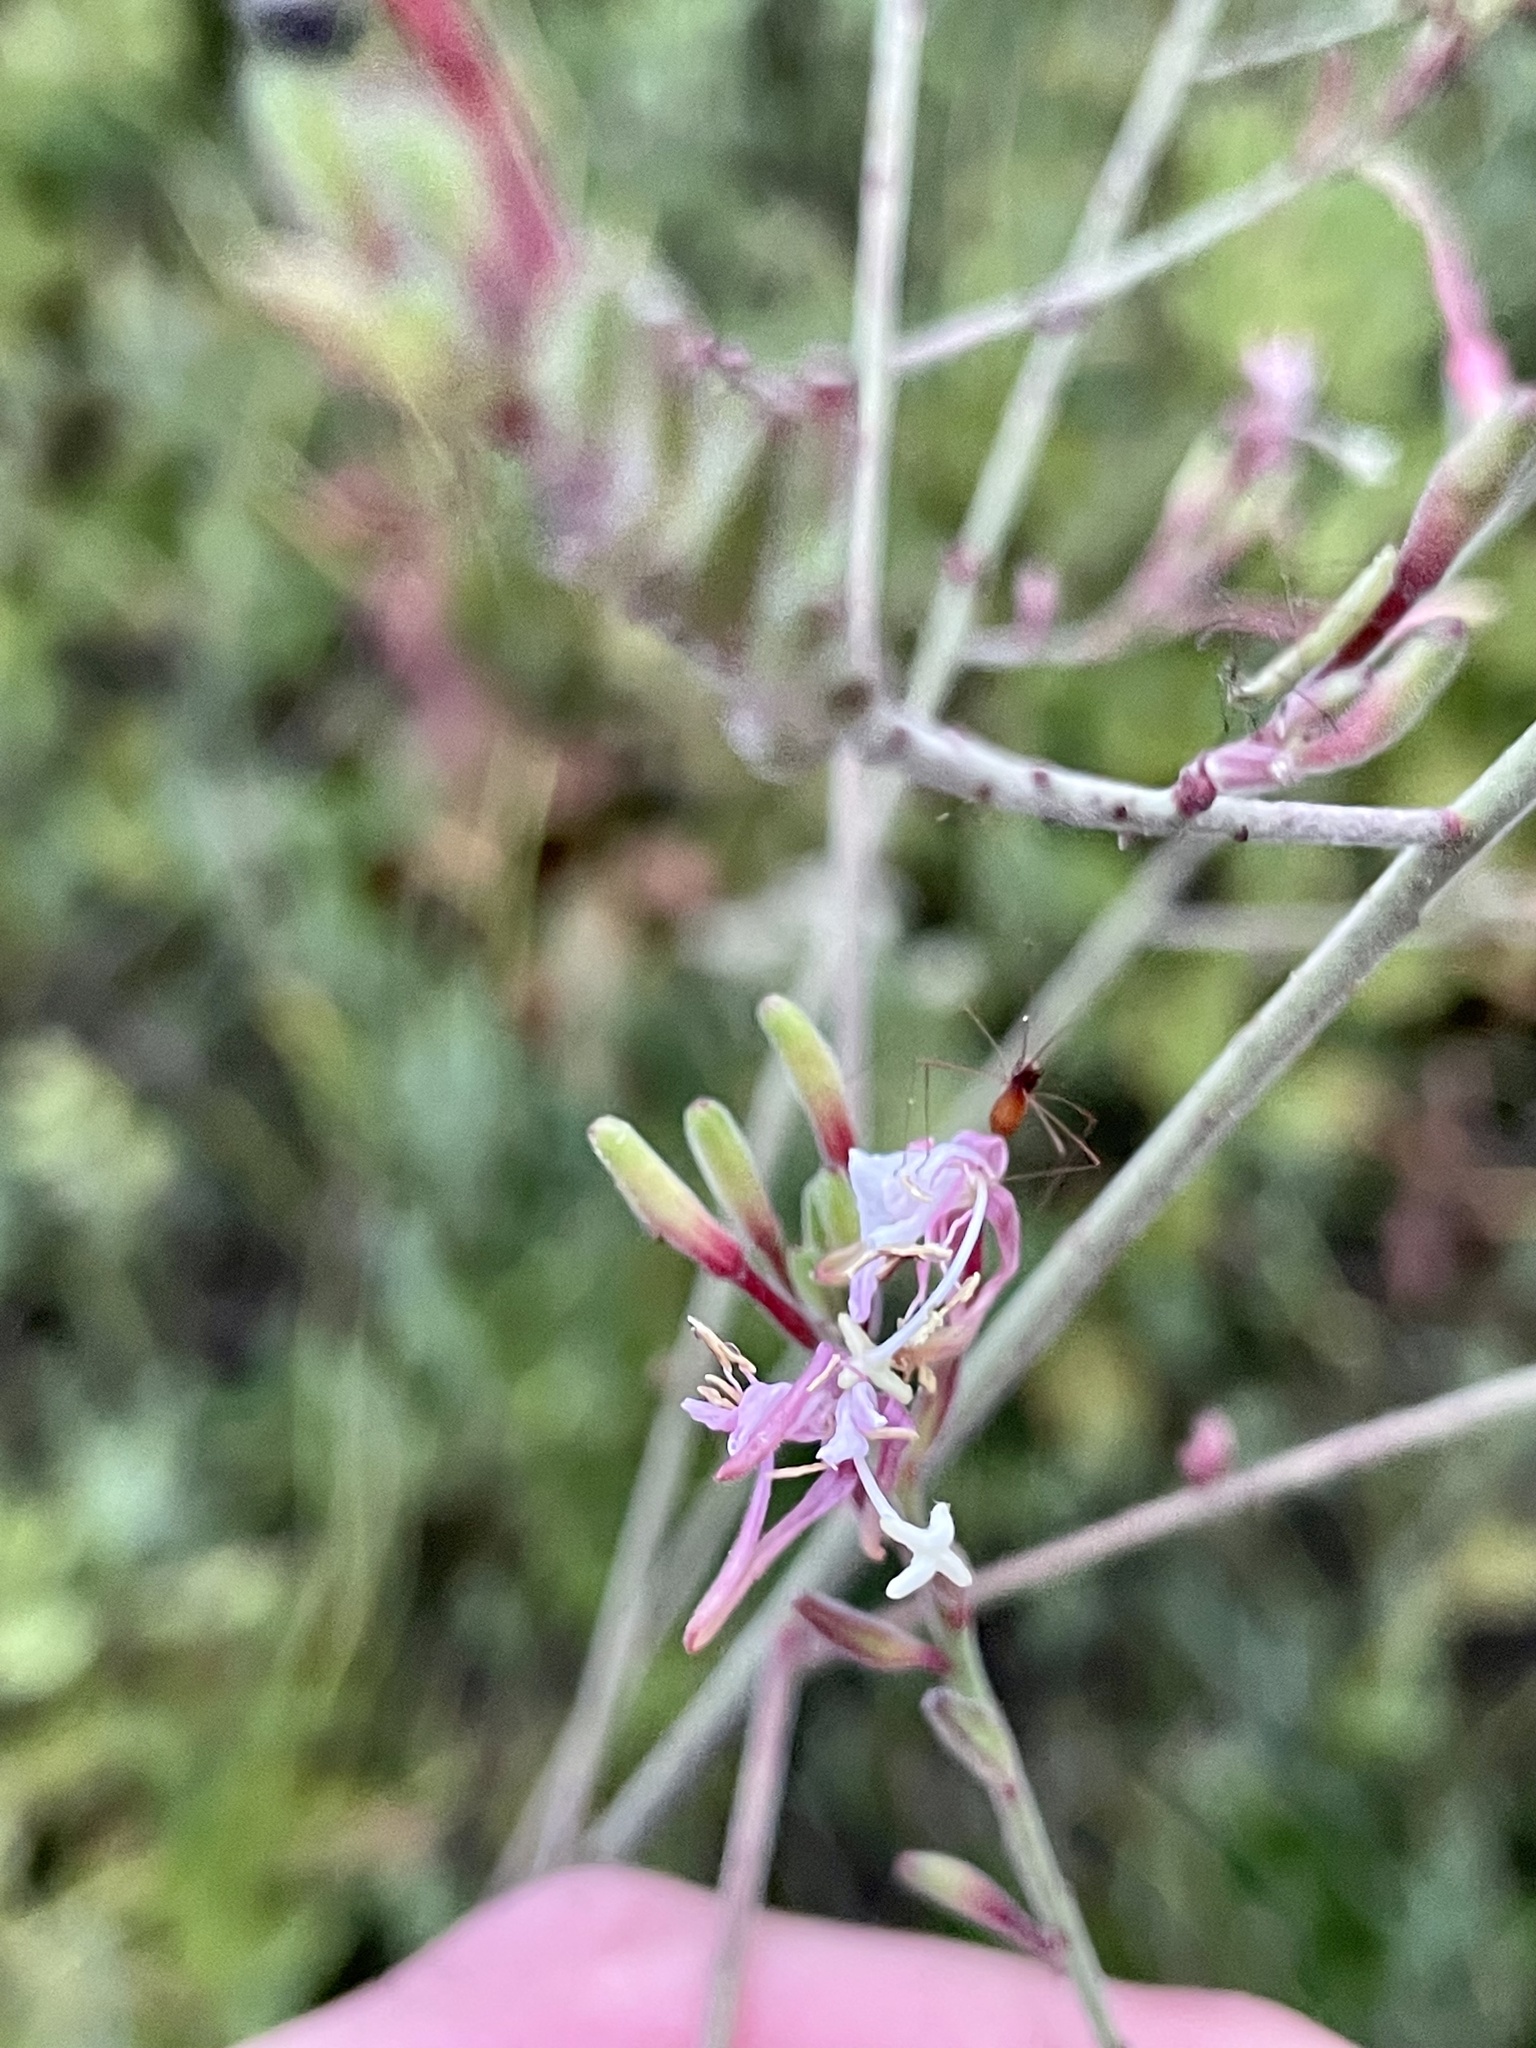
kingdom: Plantae
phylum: Tracheophyta
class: Magnoliopsida
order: Myrtales
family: Onagraceae
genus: Oenothera
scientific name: Oenothera gaura
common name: Biennial beeblossom
